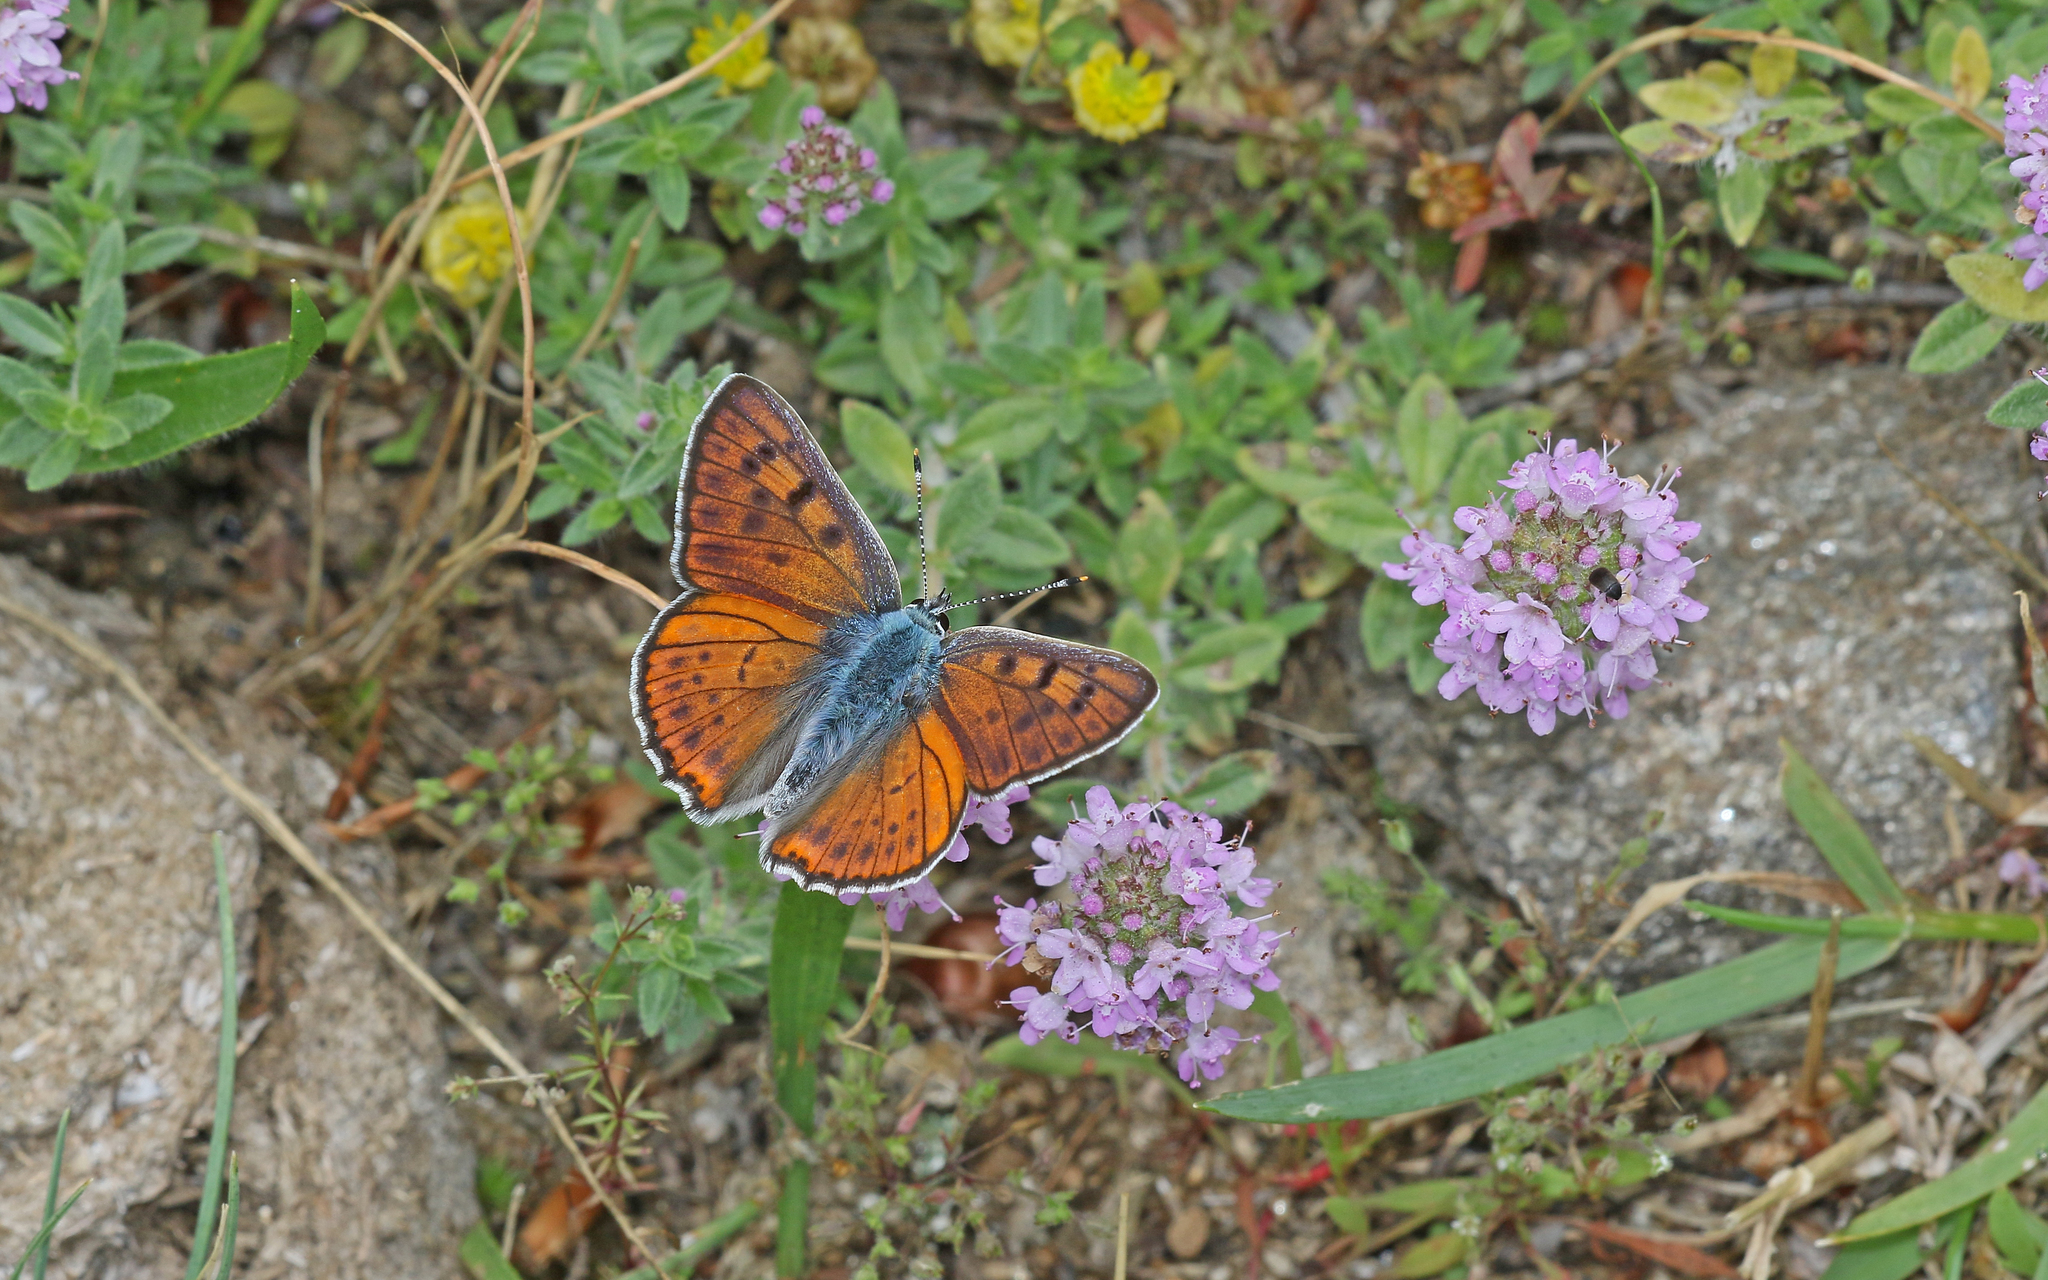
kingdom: Animalia
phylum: Arthropoda
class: Insecta
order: Lepidoptera
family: Lycaenidae
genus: Lycaena
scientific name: Lycaena alciphron
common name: Purple-shot copper
